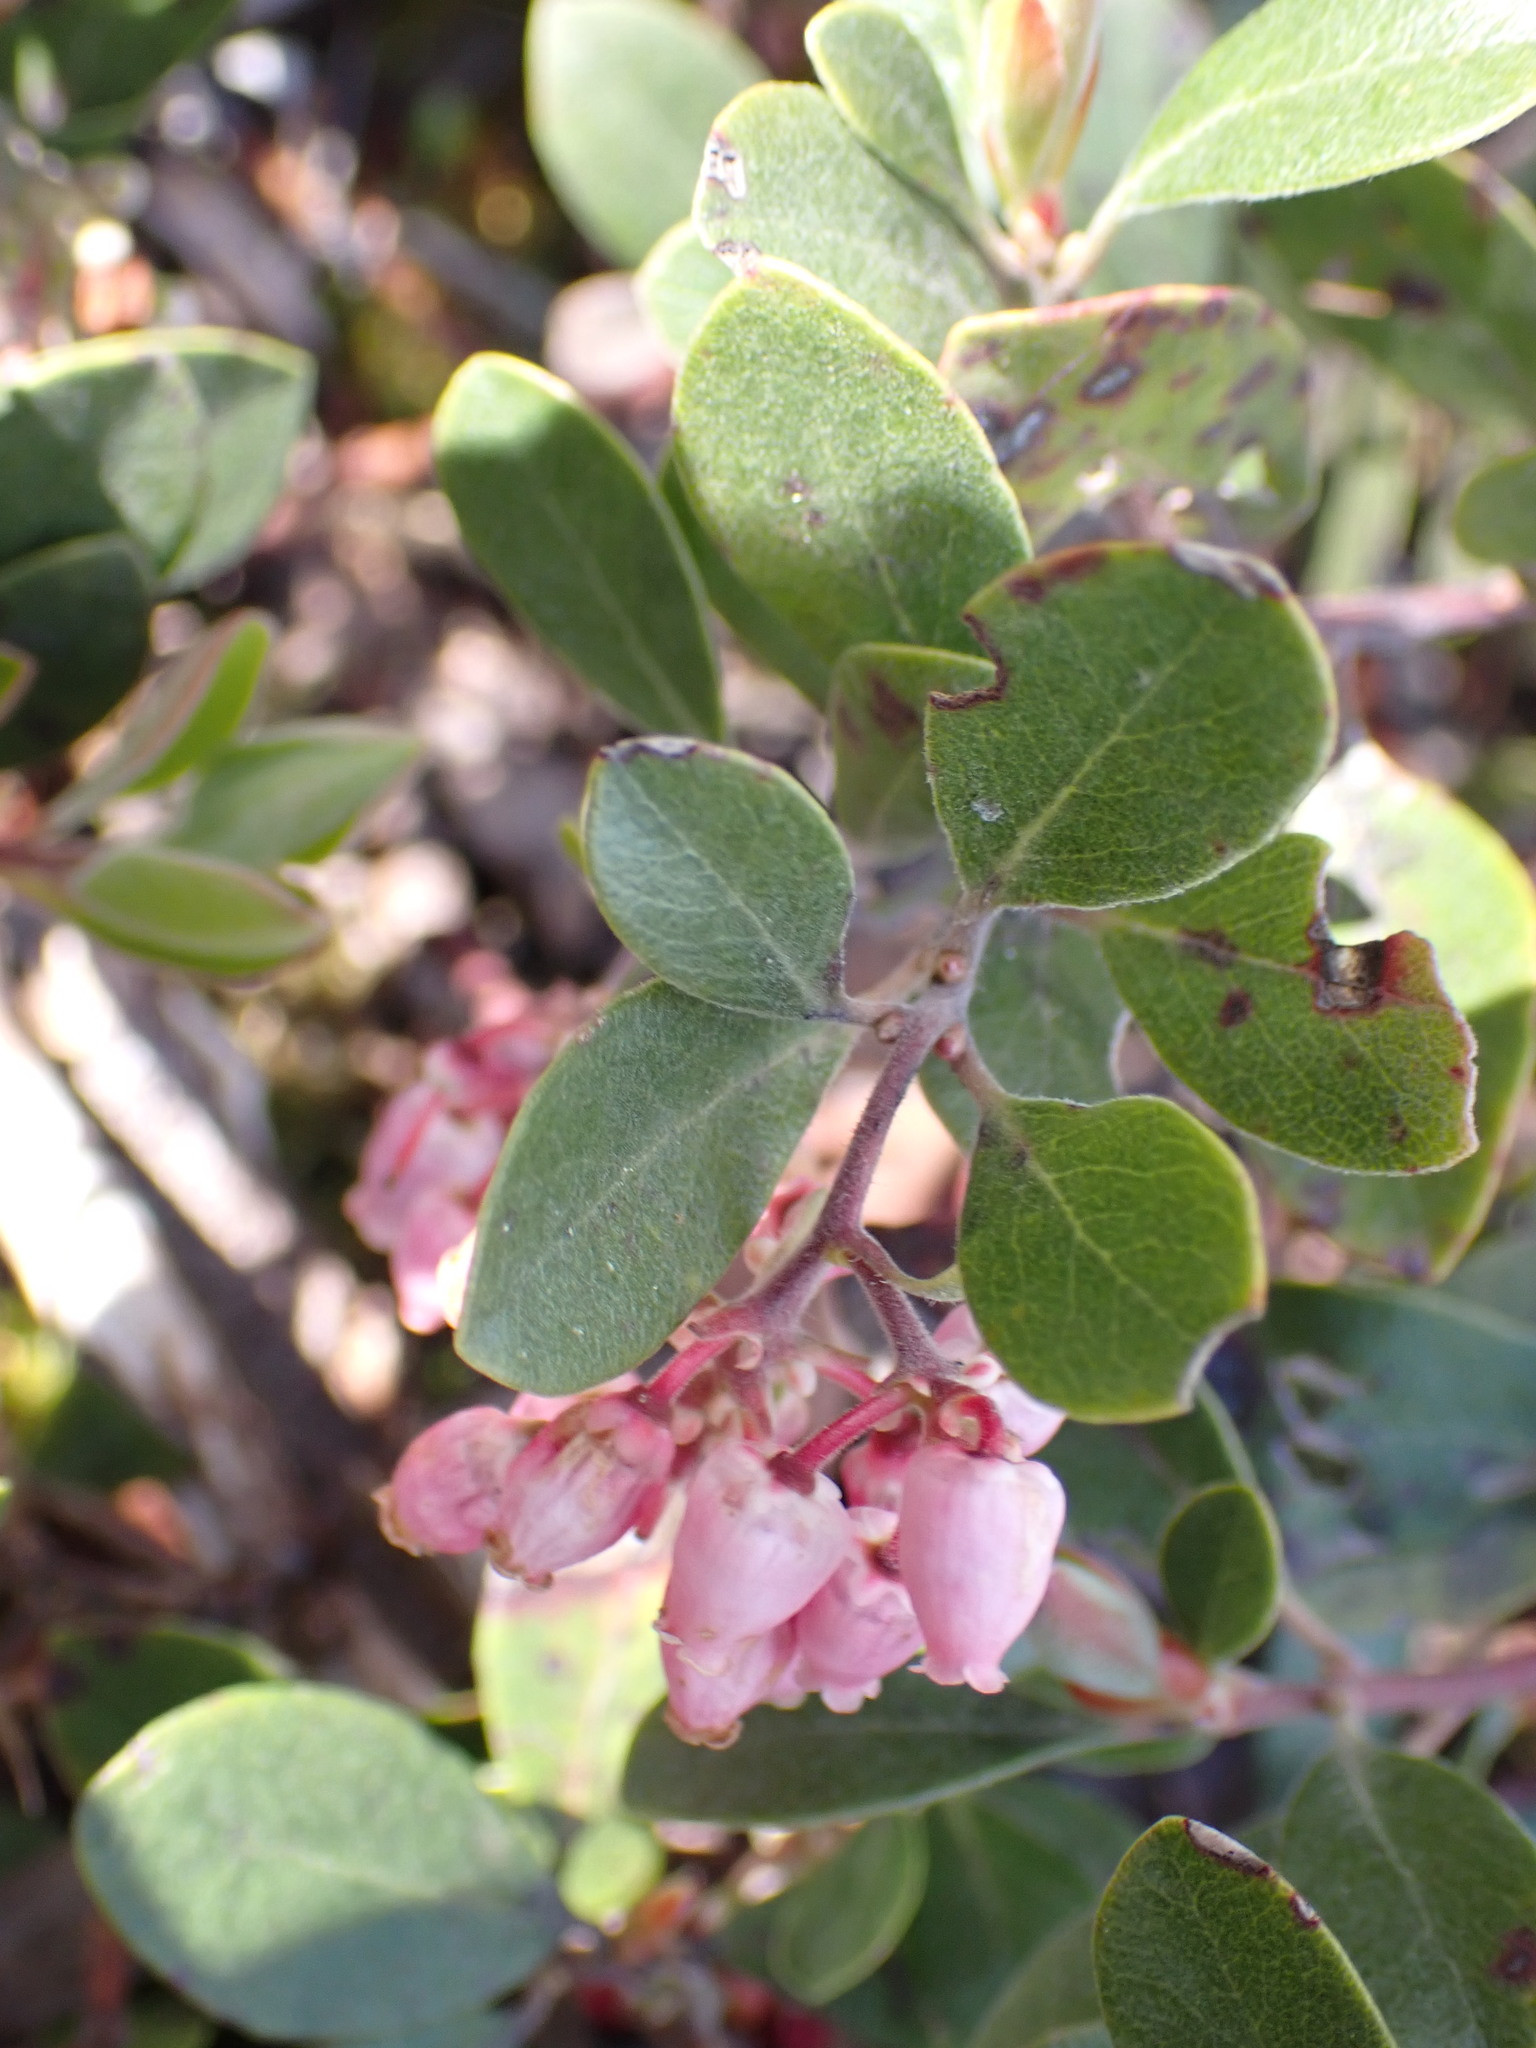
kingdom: Plantae
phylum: Tracheophyta
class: Magnoliopsida
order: Ericales
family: Ericaceae
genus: Arctostaphylos
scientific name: Arctostaphylos media
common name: Hybrid manzanita
